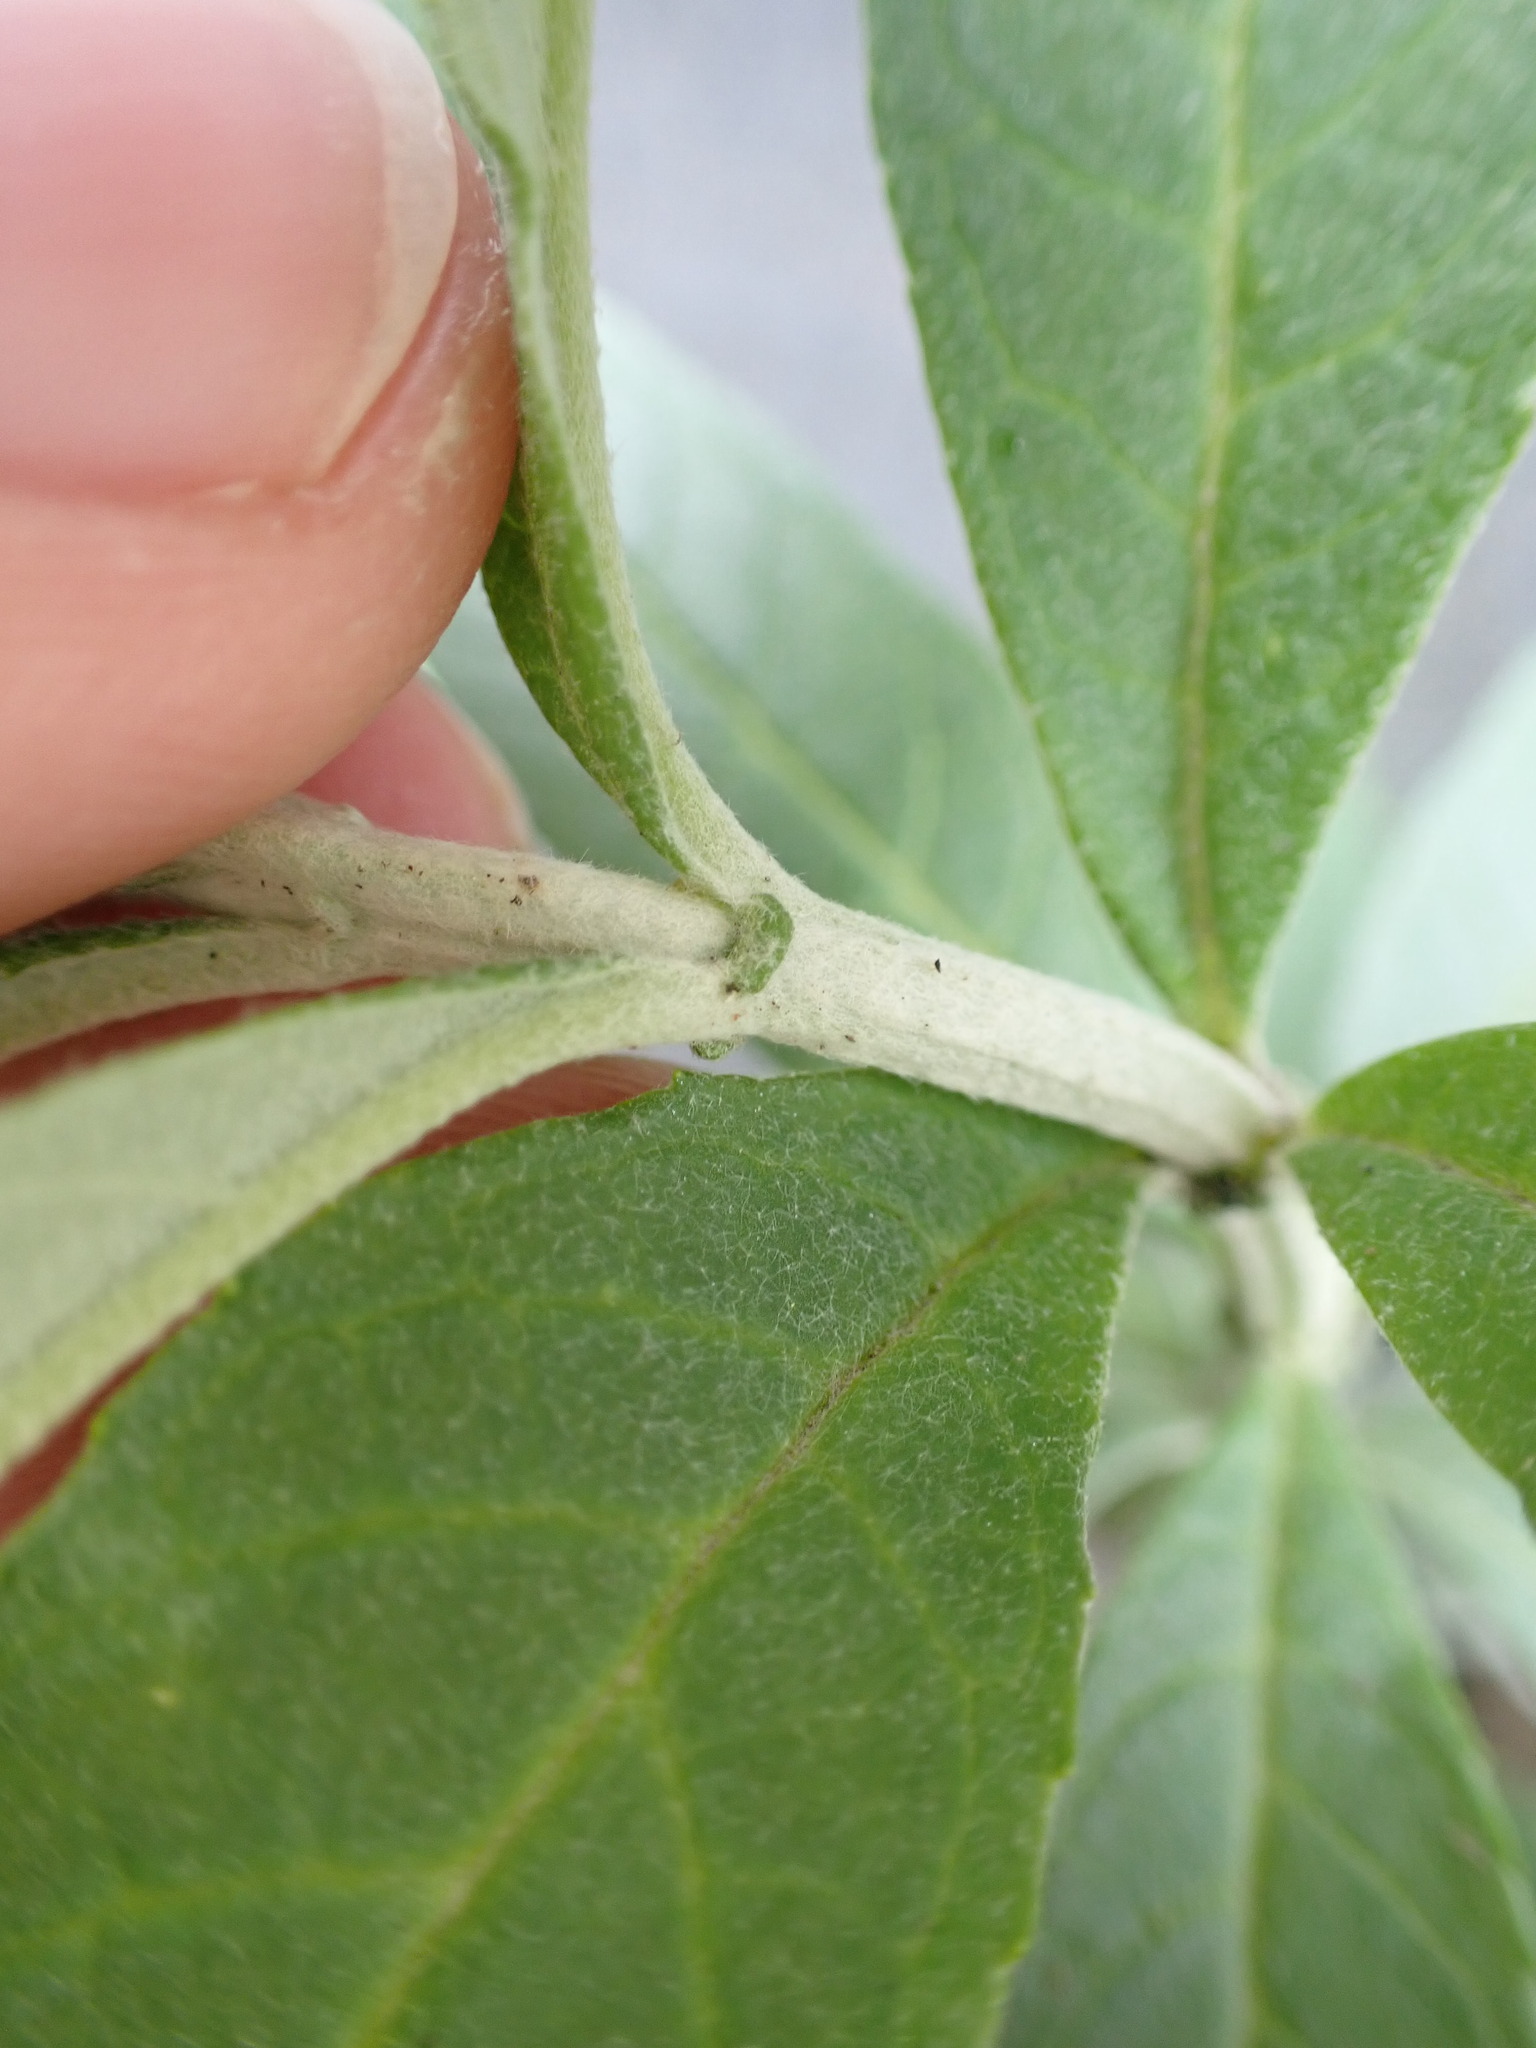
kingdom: Plantae
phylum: Tracheophyta
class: Magnoliopsida
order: Lamiales
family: Scrophulariaceae
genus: Buddleja
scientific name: Buddleja davidii
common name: Butterfly-bush
